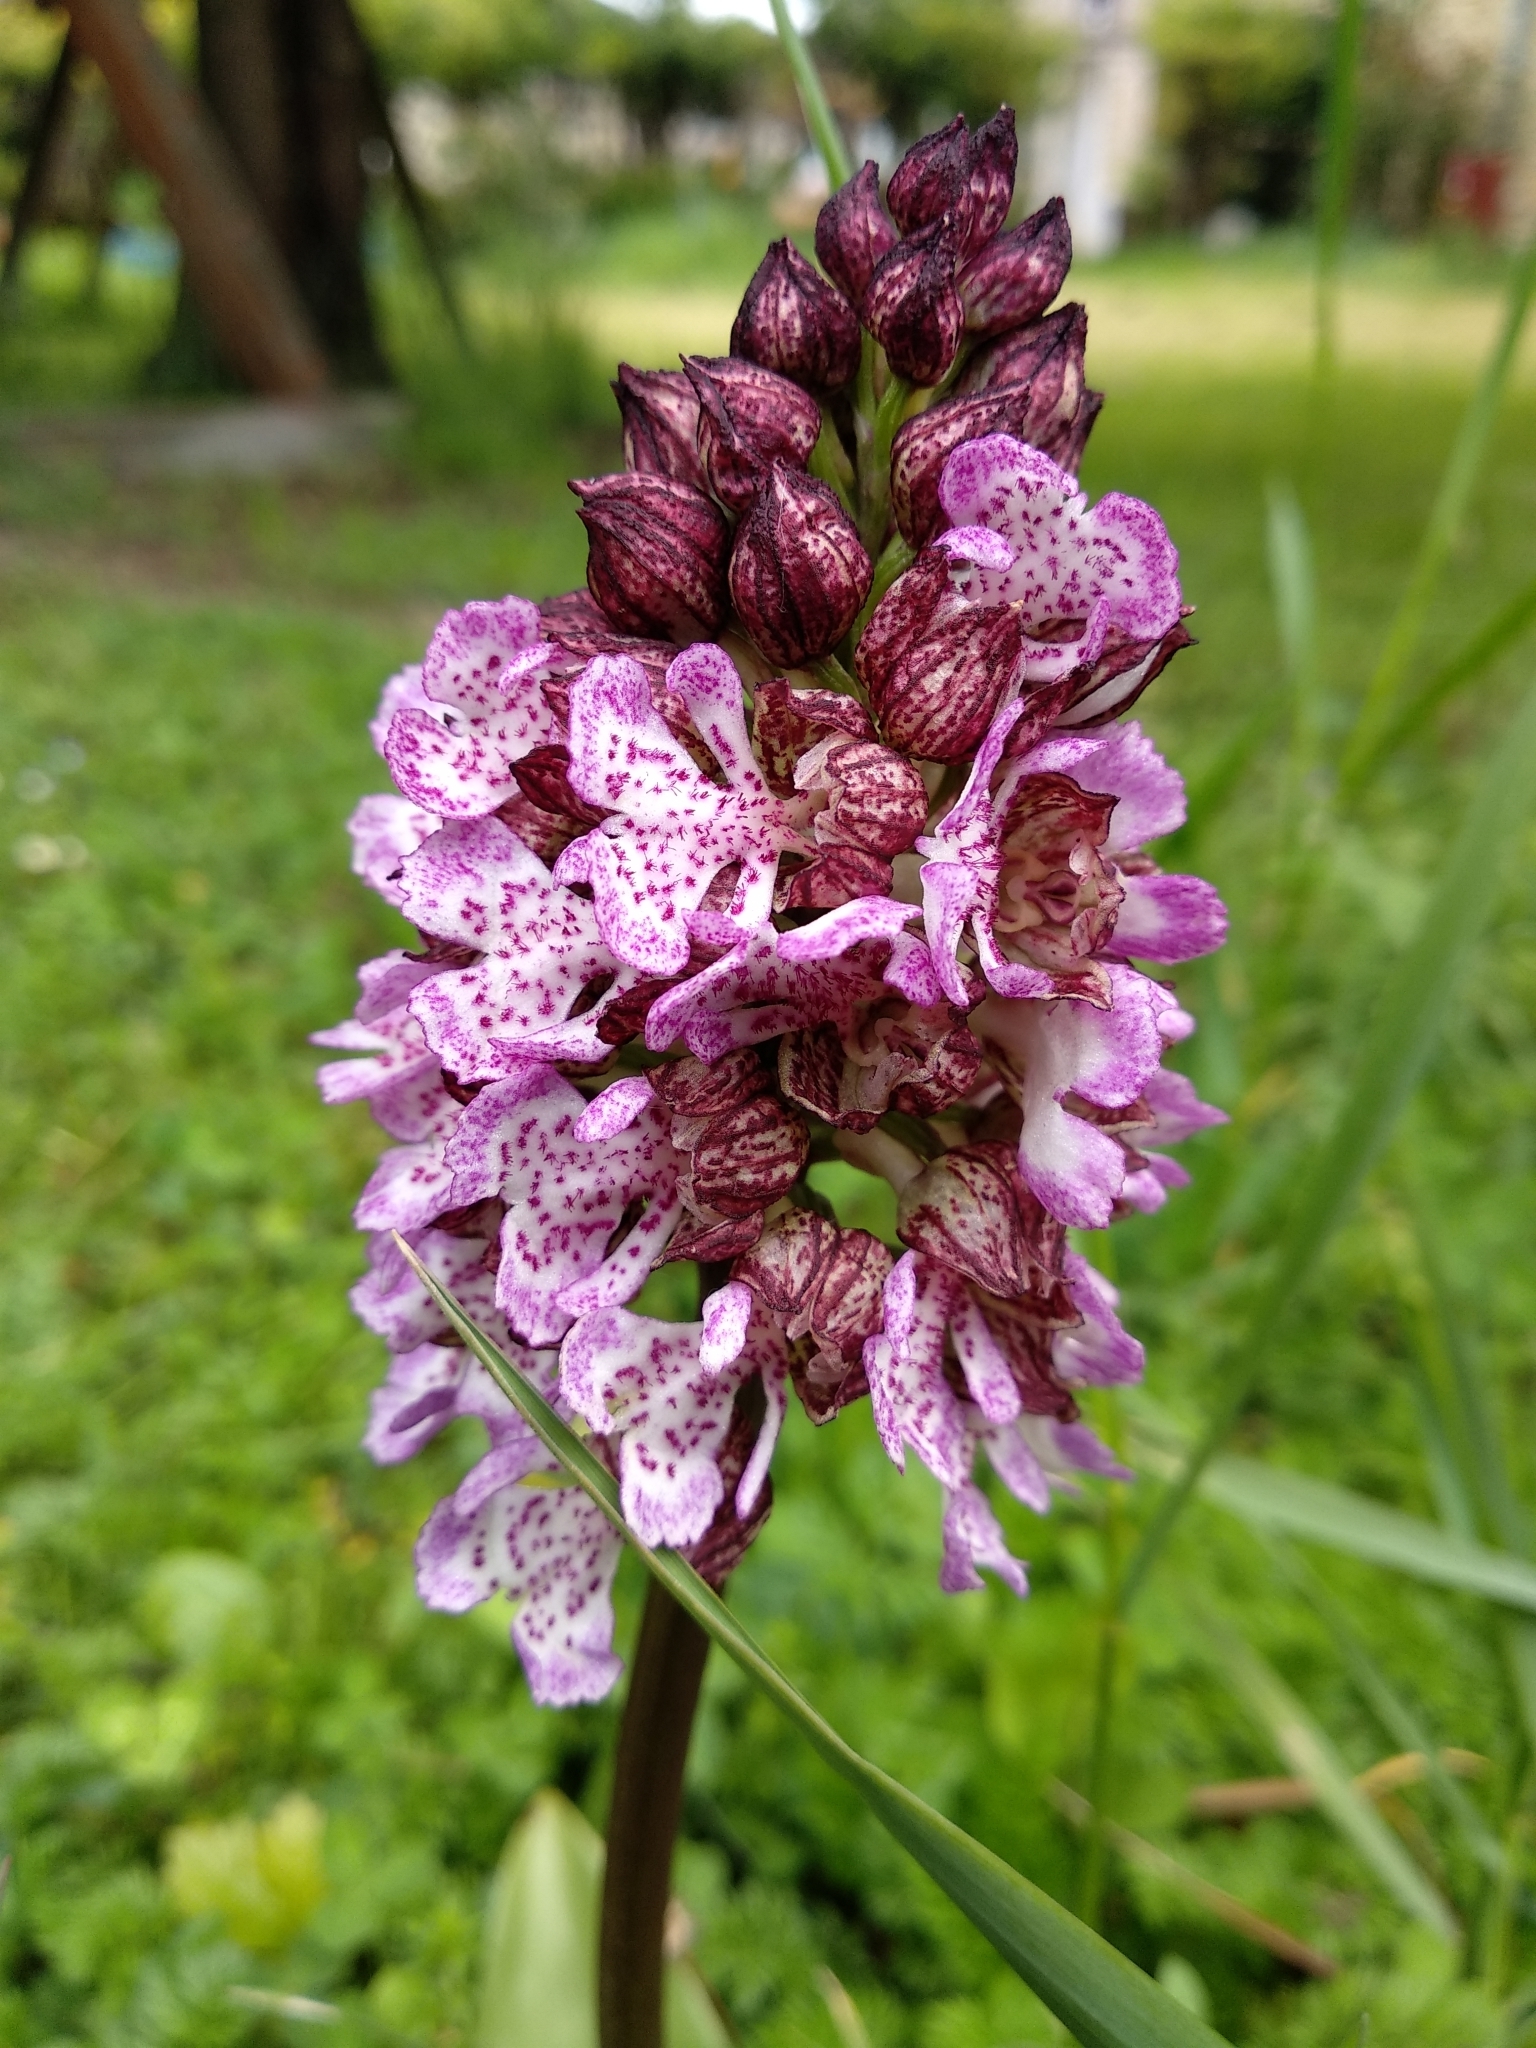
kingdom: Plantae
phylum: Tracheophyta
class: Liliopsida
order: Asparagales
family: Orchidaceae
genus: Orchis
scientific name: Orchis purpurea
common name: Lady orchid
